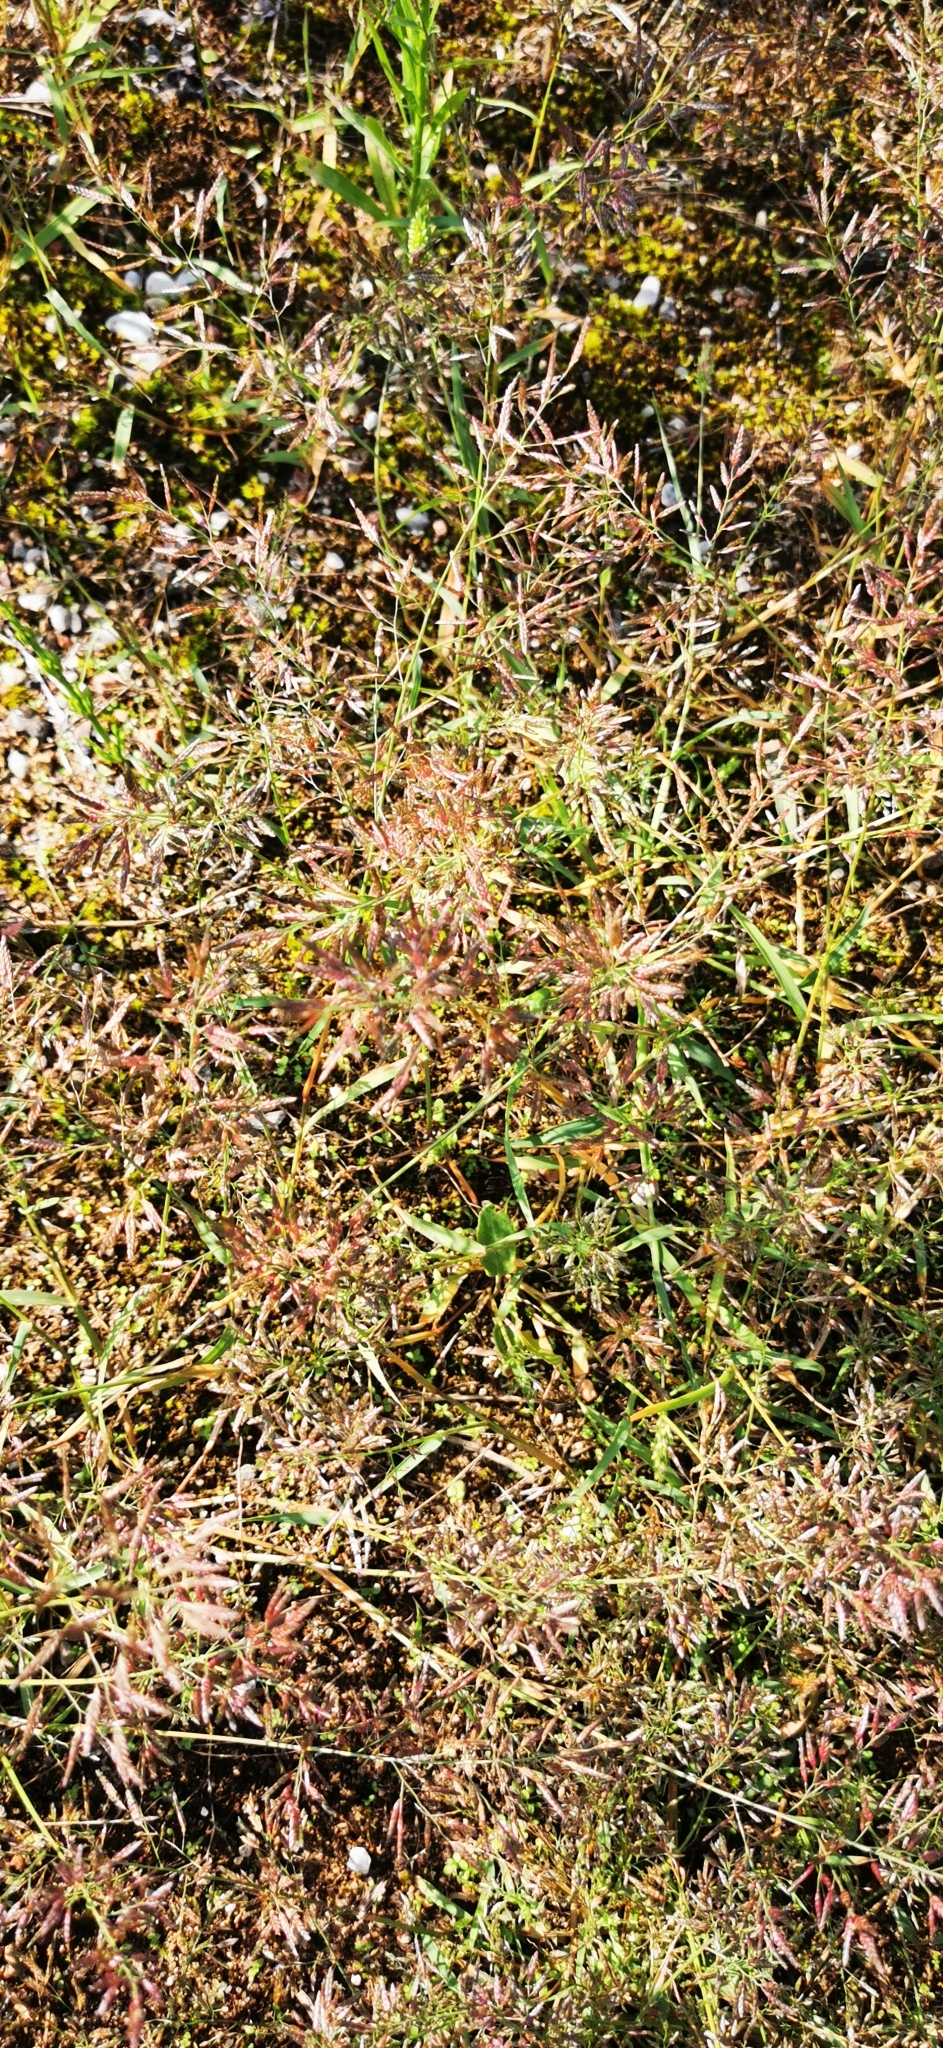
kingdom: Plantae
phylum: Tracheophyta
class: Liliopsida
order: Poales
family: Poaceae
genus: Eragrostis
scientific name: Eragrostis minor
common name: Small love-grass
